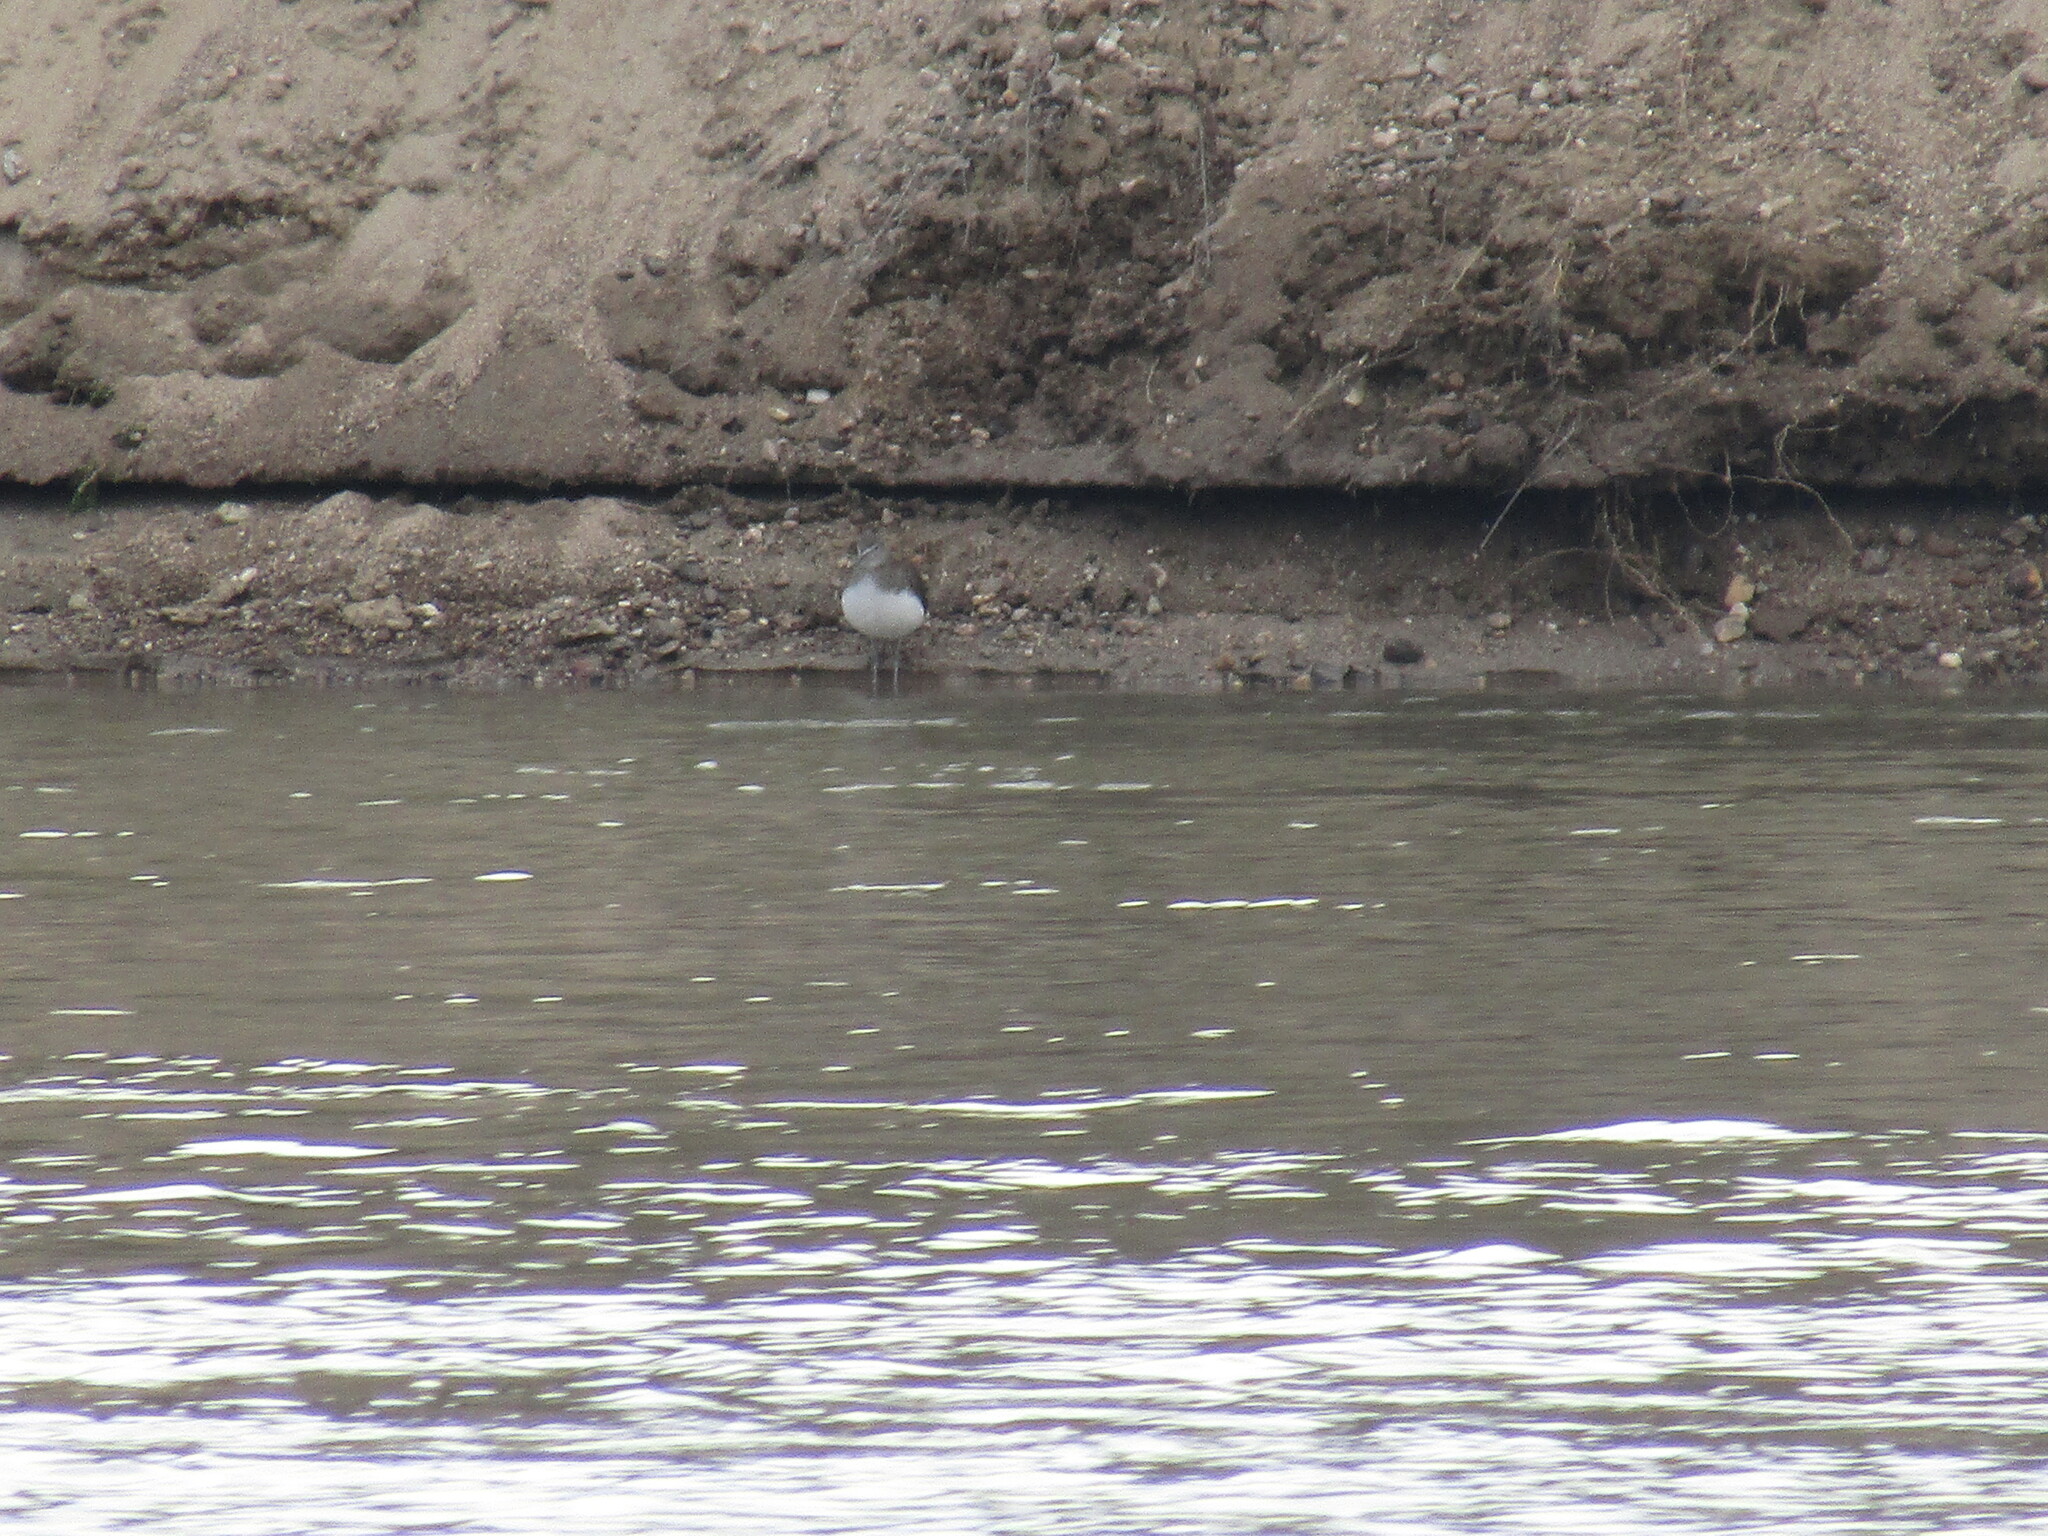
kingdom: Animalia
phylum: Chordata
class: Aves
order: Charadriiformes
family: Scolopacidae
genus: Tringa
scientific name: Tringa ochropus
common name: Green sandpiper
